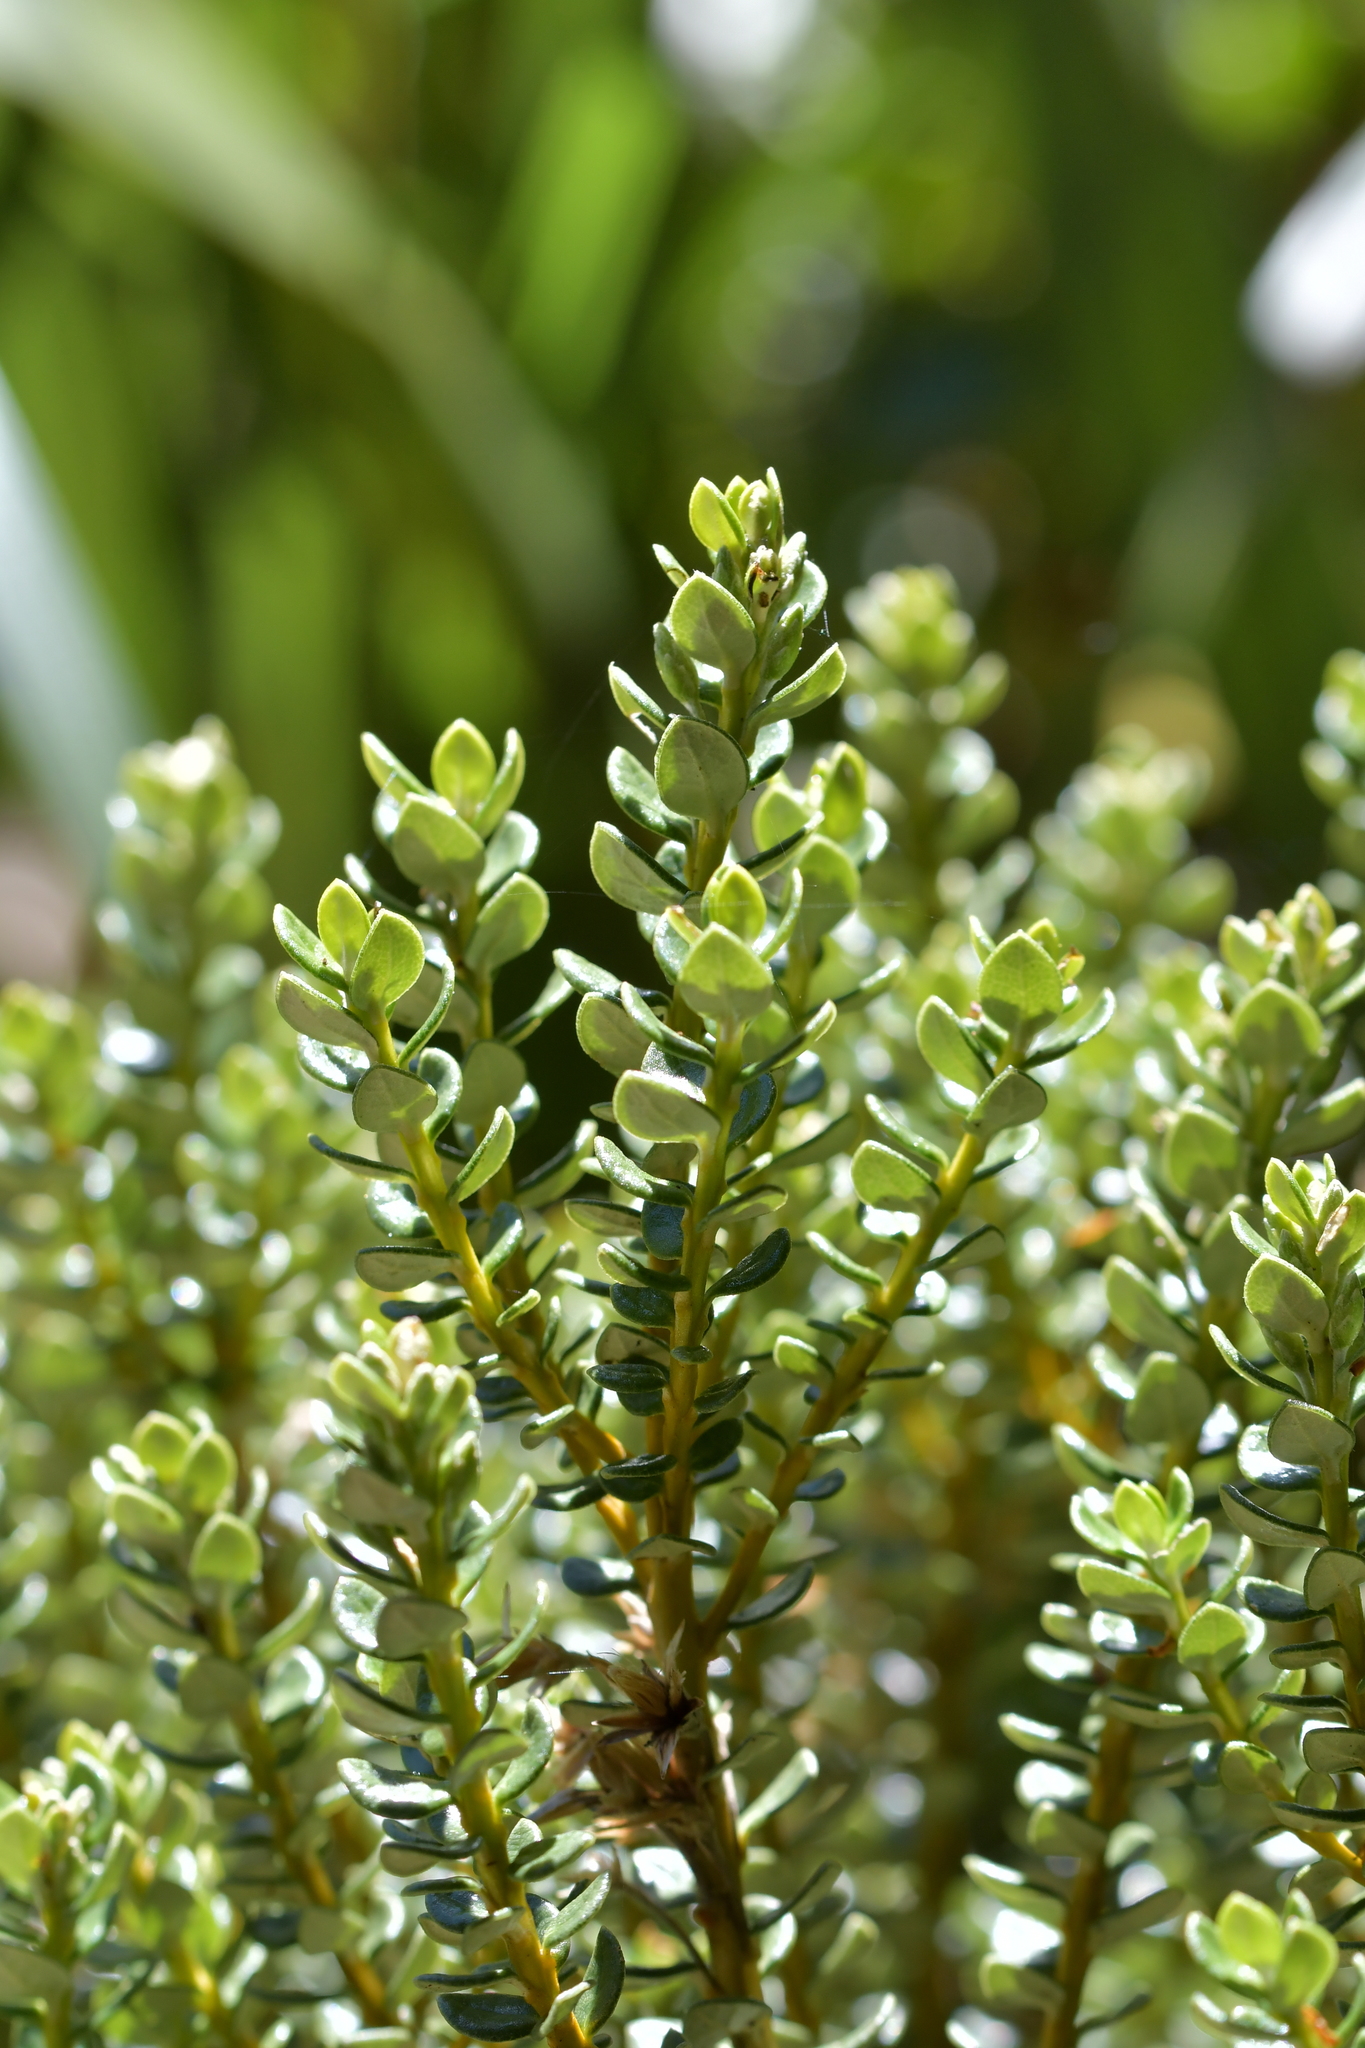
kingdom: Plantae
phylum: Tracheophyta
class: Magnoliopsida
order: Asterales
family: Asteraceae
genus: Olearia
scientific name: Olearia nummularifolia
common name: Sticky daisybush
